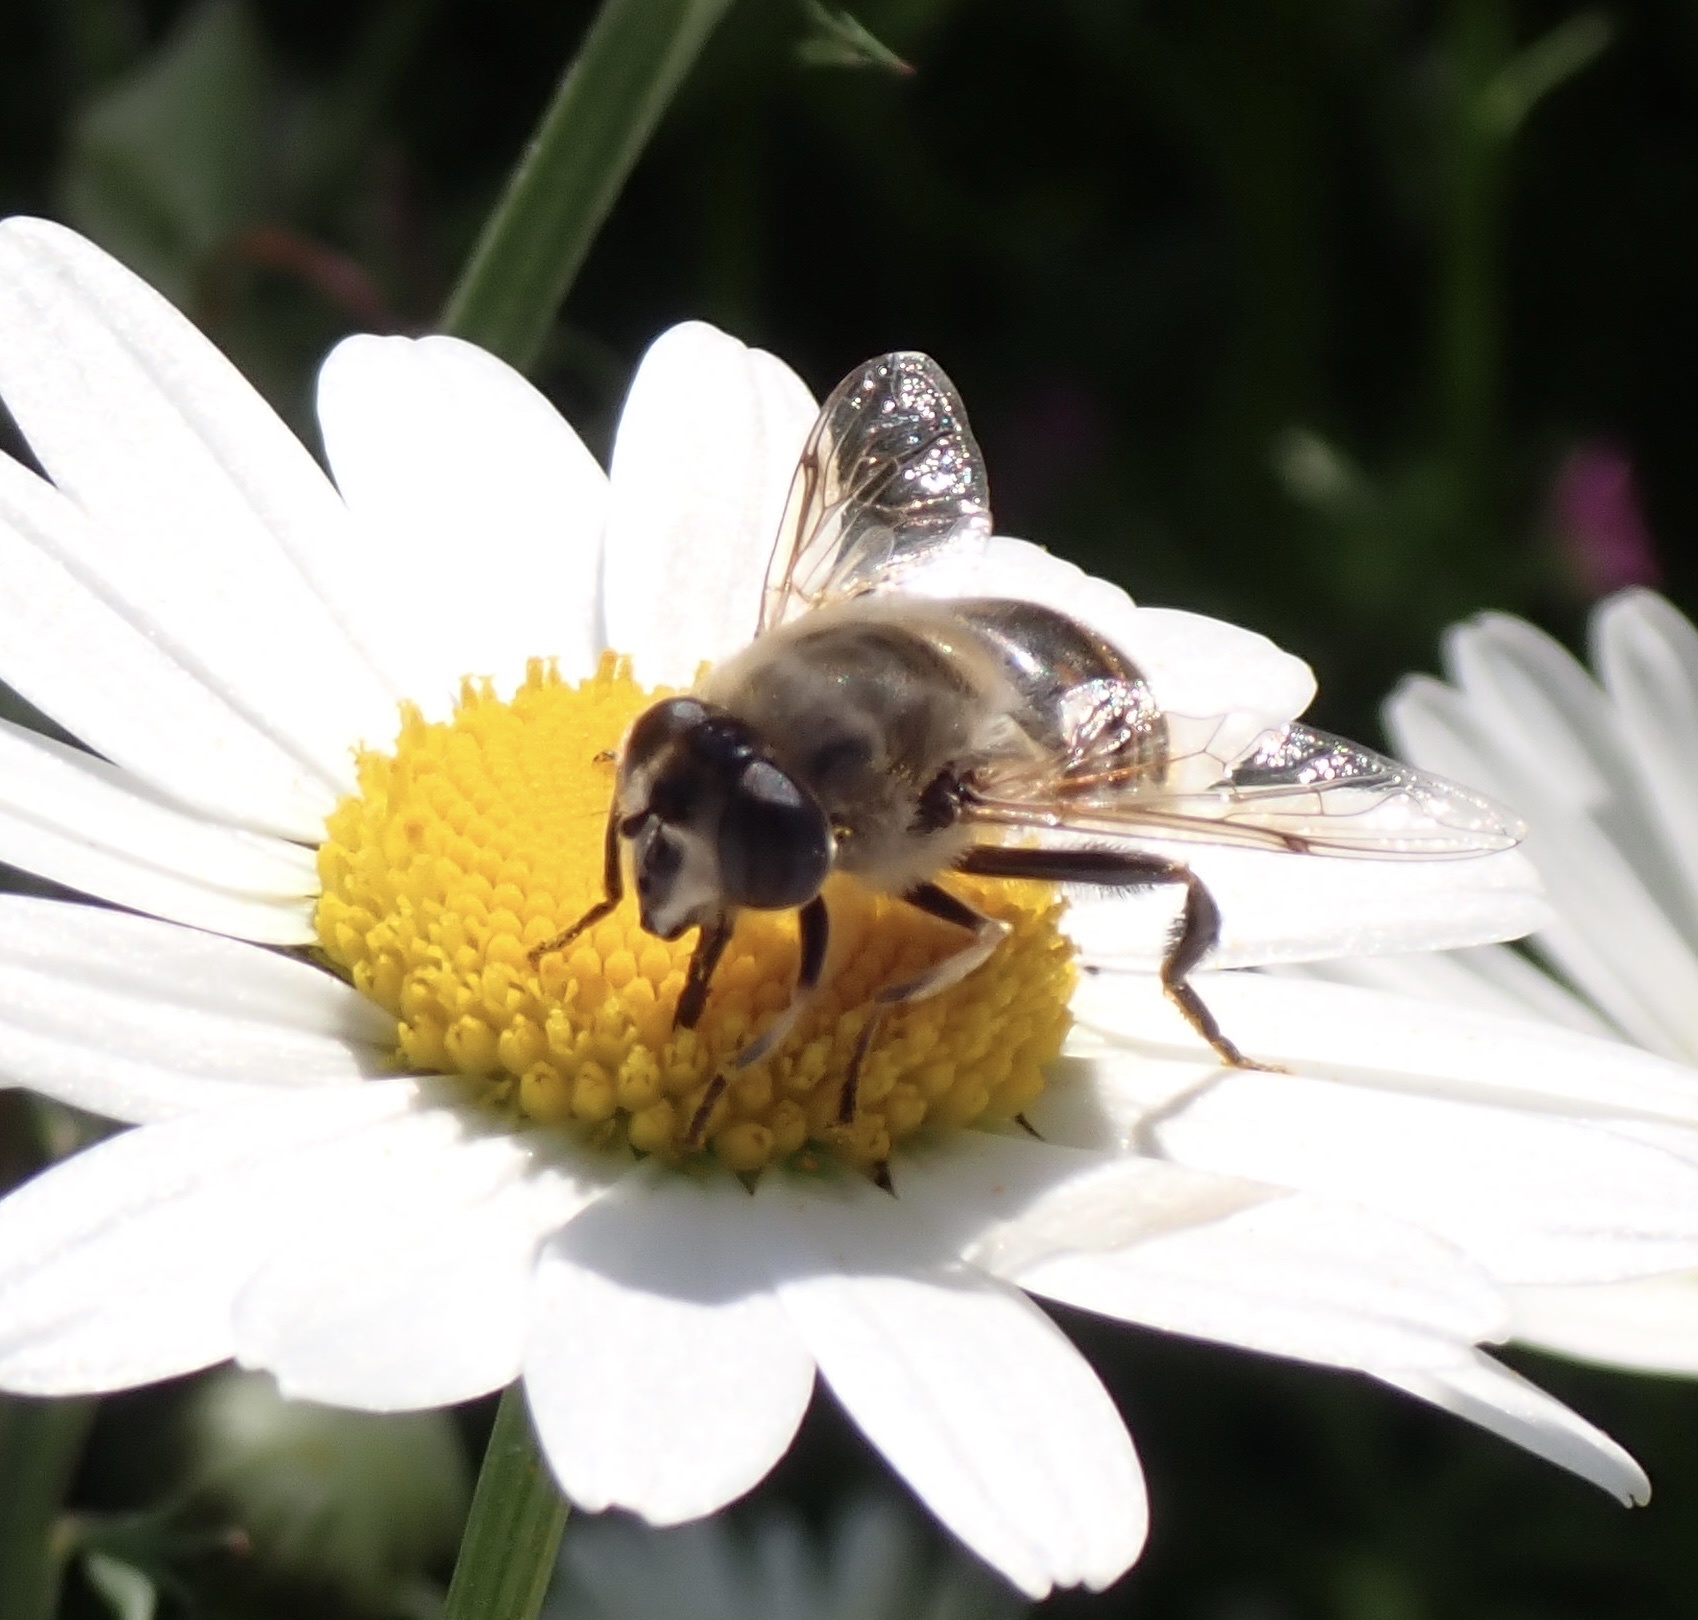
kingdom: Animalia
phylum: Arthropoda
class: Insecta
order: Diptera
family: Syrphidae
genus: Eristalis
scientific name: Eristalis tenax
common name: Drone fly
